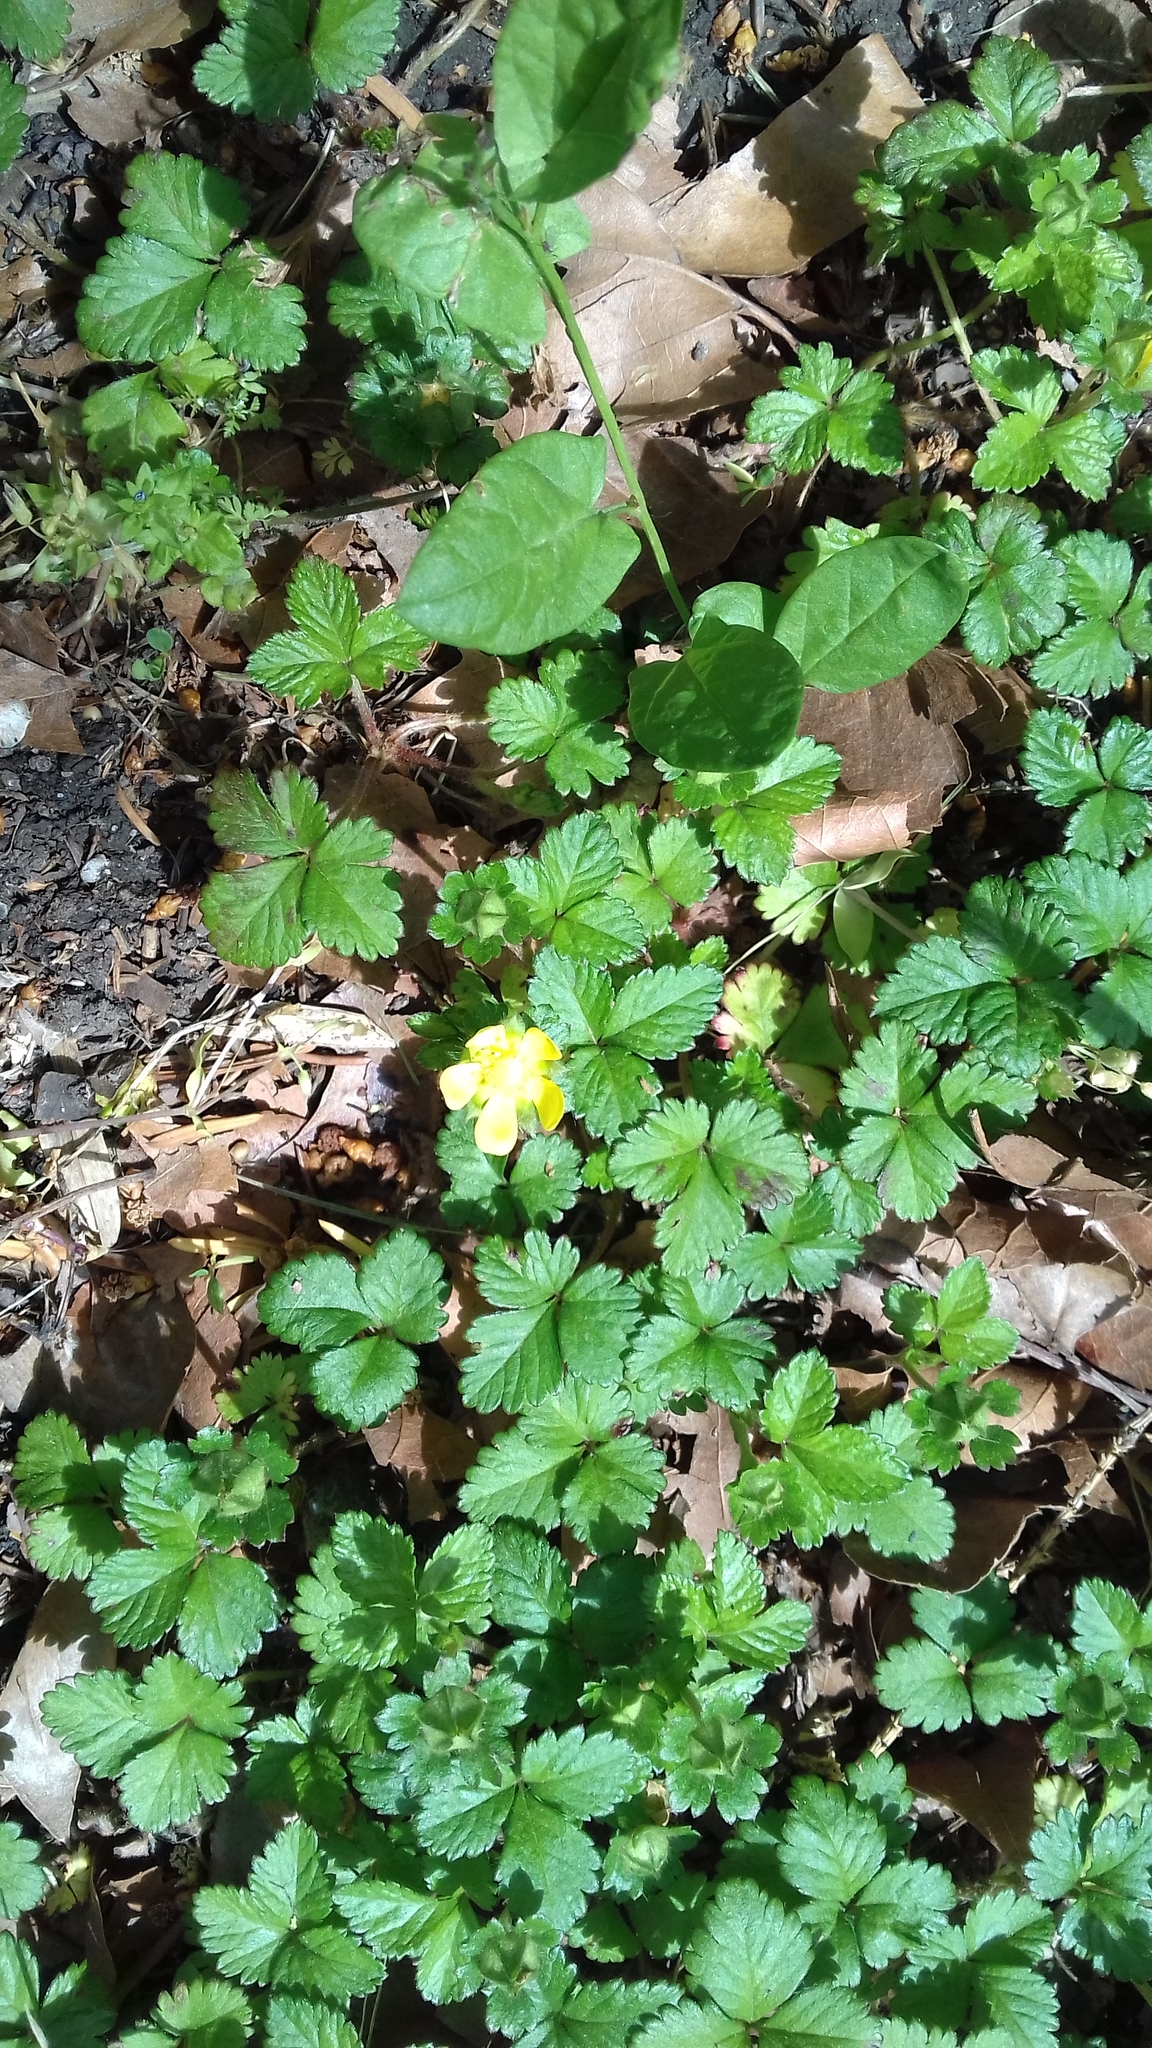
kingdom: Plantae
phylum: Tracheophyta
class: Magnoliopsida
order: Rosales
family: Rosaceae
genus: Potentilla
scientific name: Potentilla indica
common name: Yellow-flowered strawberry
